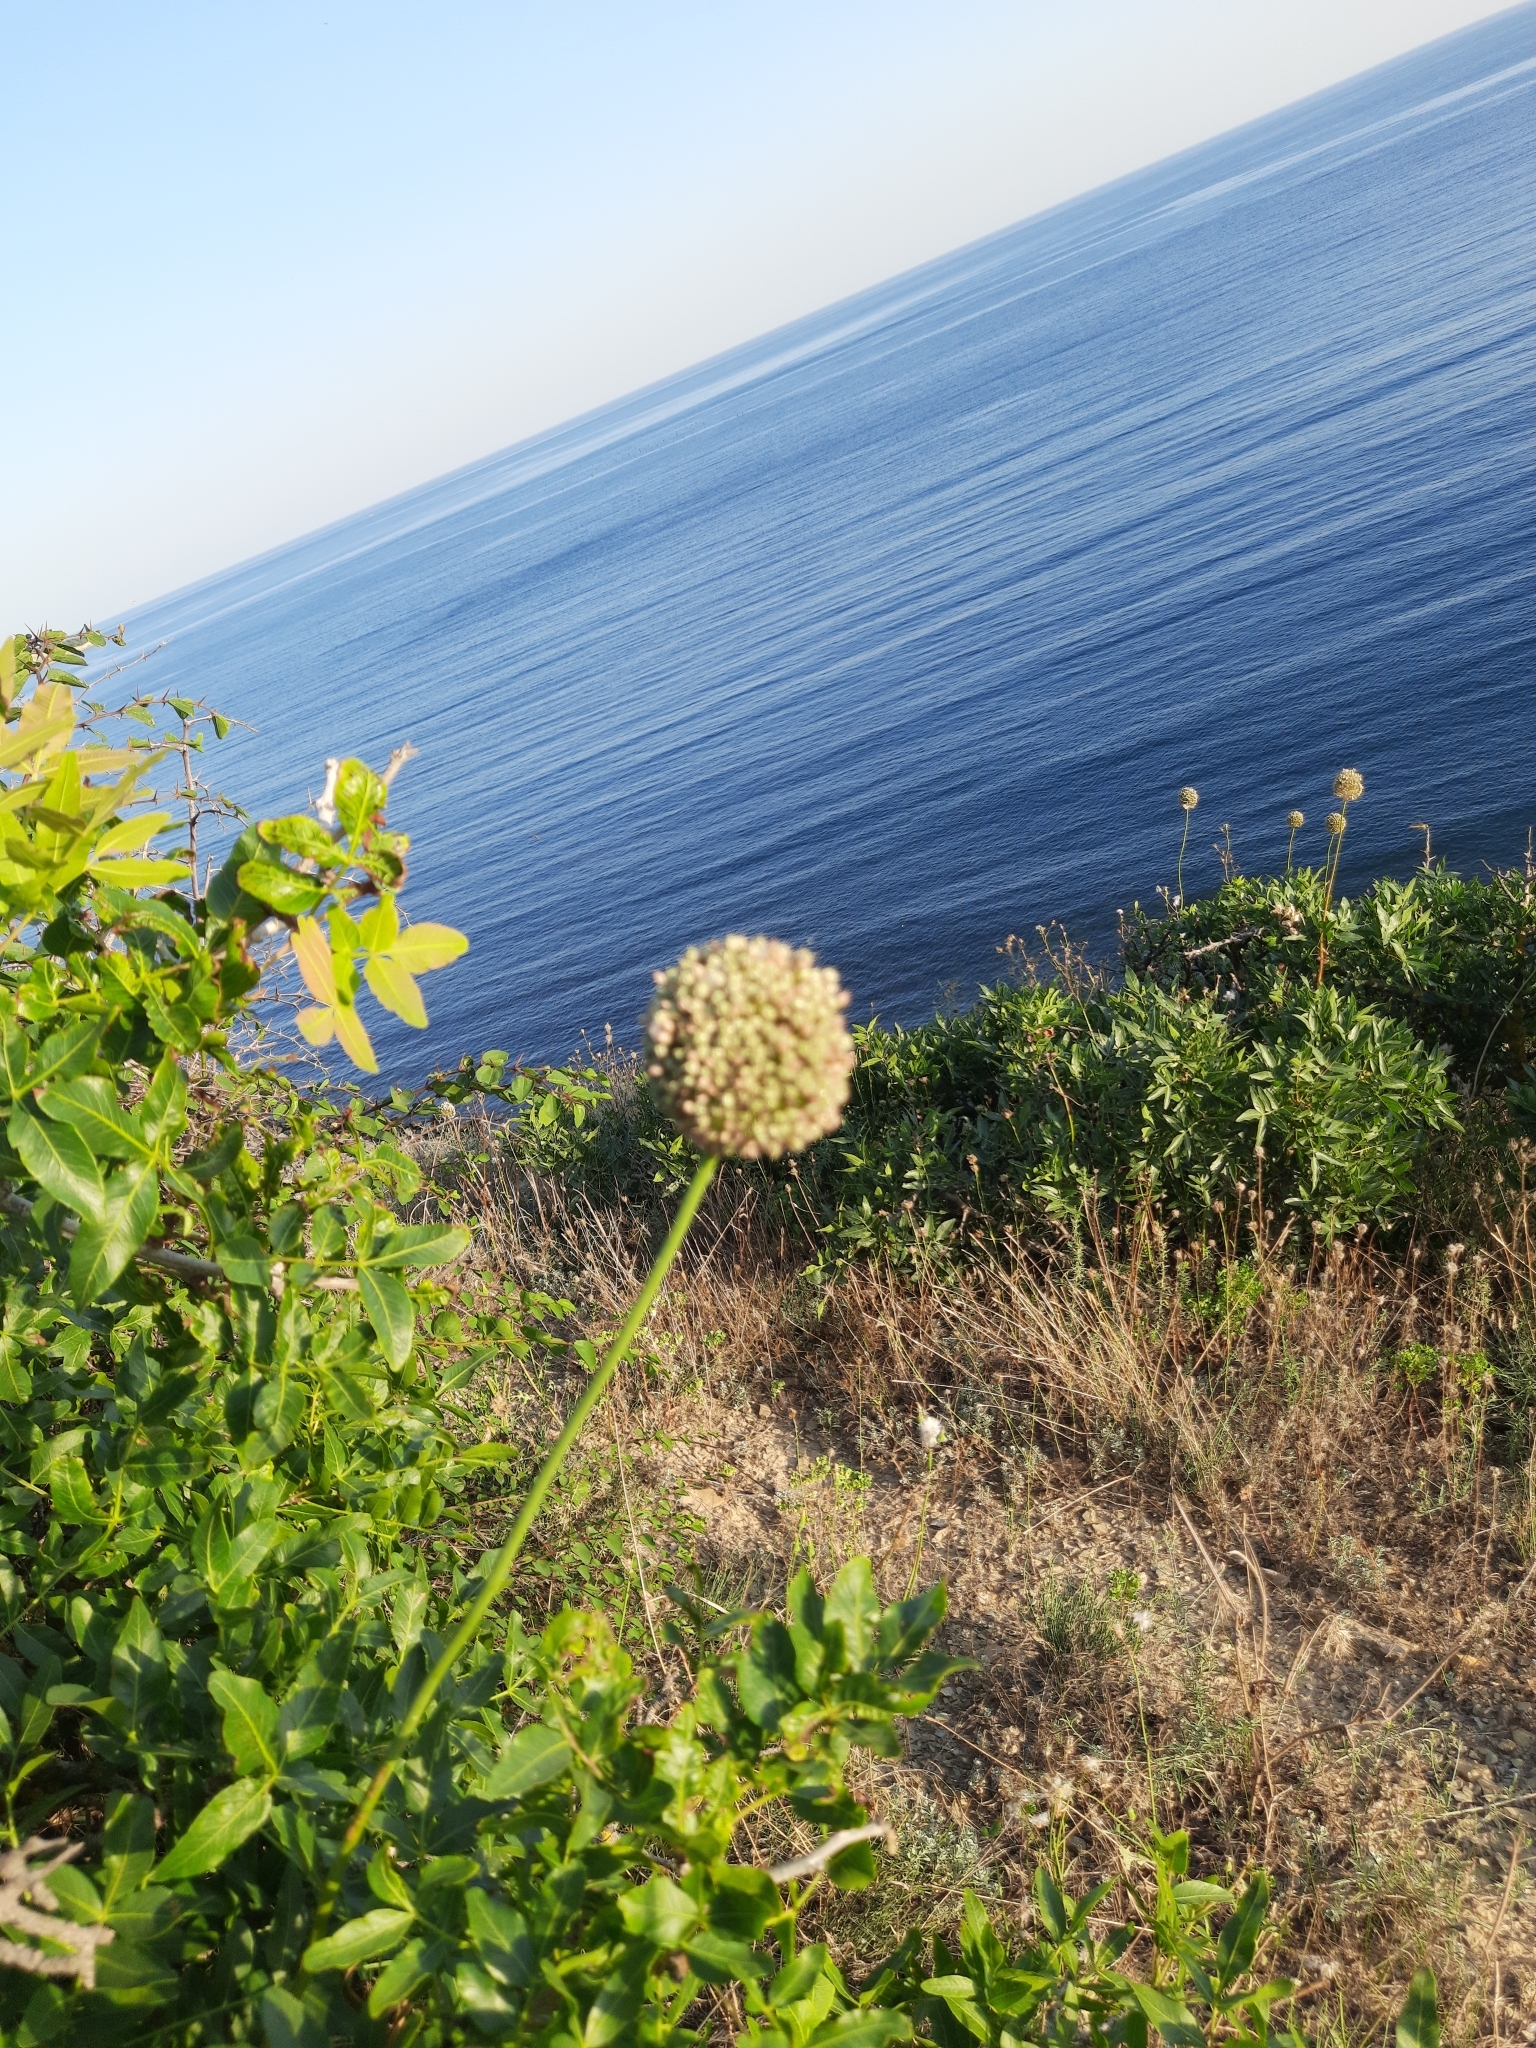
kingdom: Plantae
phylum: Tracheophyta
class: Liliopsida
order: Asparagales
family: Amaryllidaceae
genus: Allium
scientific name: Allium atroviolaceum
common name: Broadleaf wild leek
